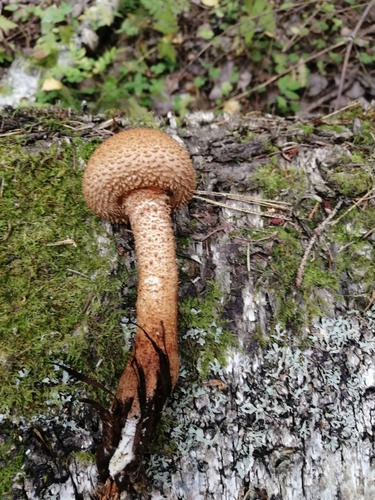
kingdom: Fungi
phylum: Basidiomycota
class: Agaricomycetes
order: Agaricales
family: Strophariaceae
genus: Pholiota
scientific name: Pholiota squarrosa
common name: Shaggy pholiota
